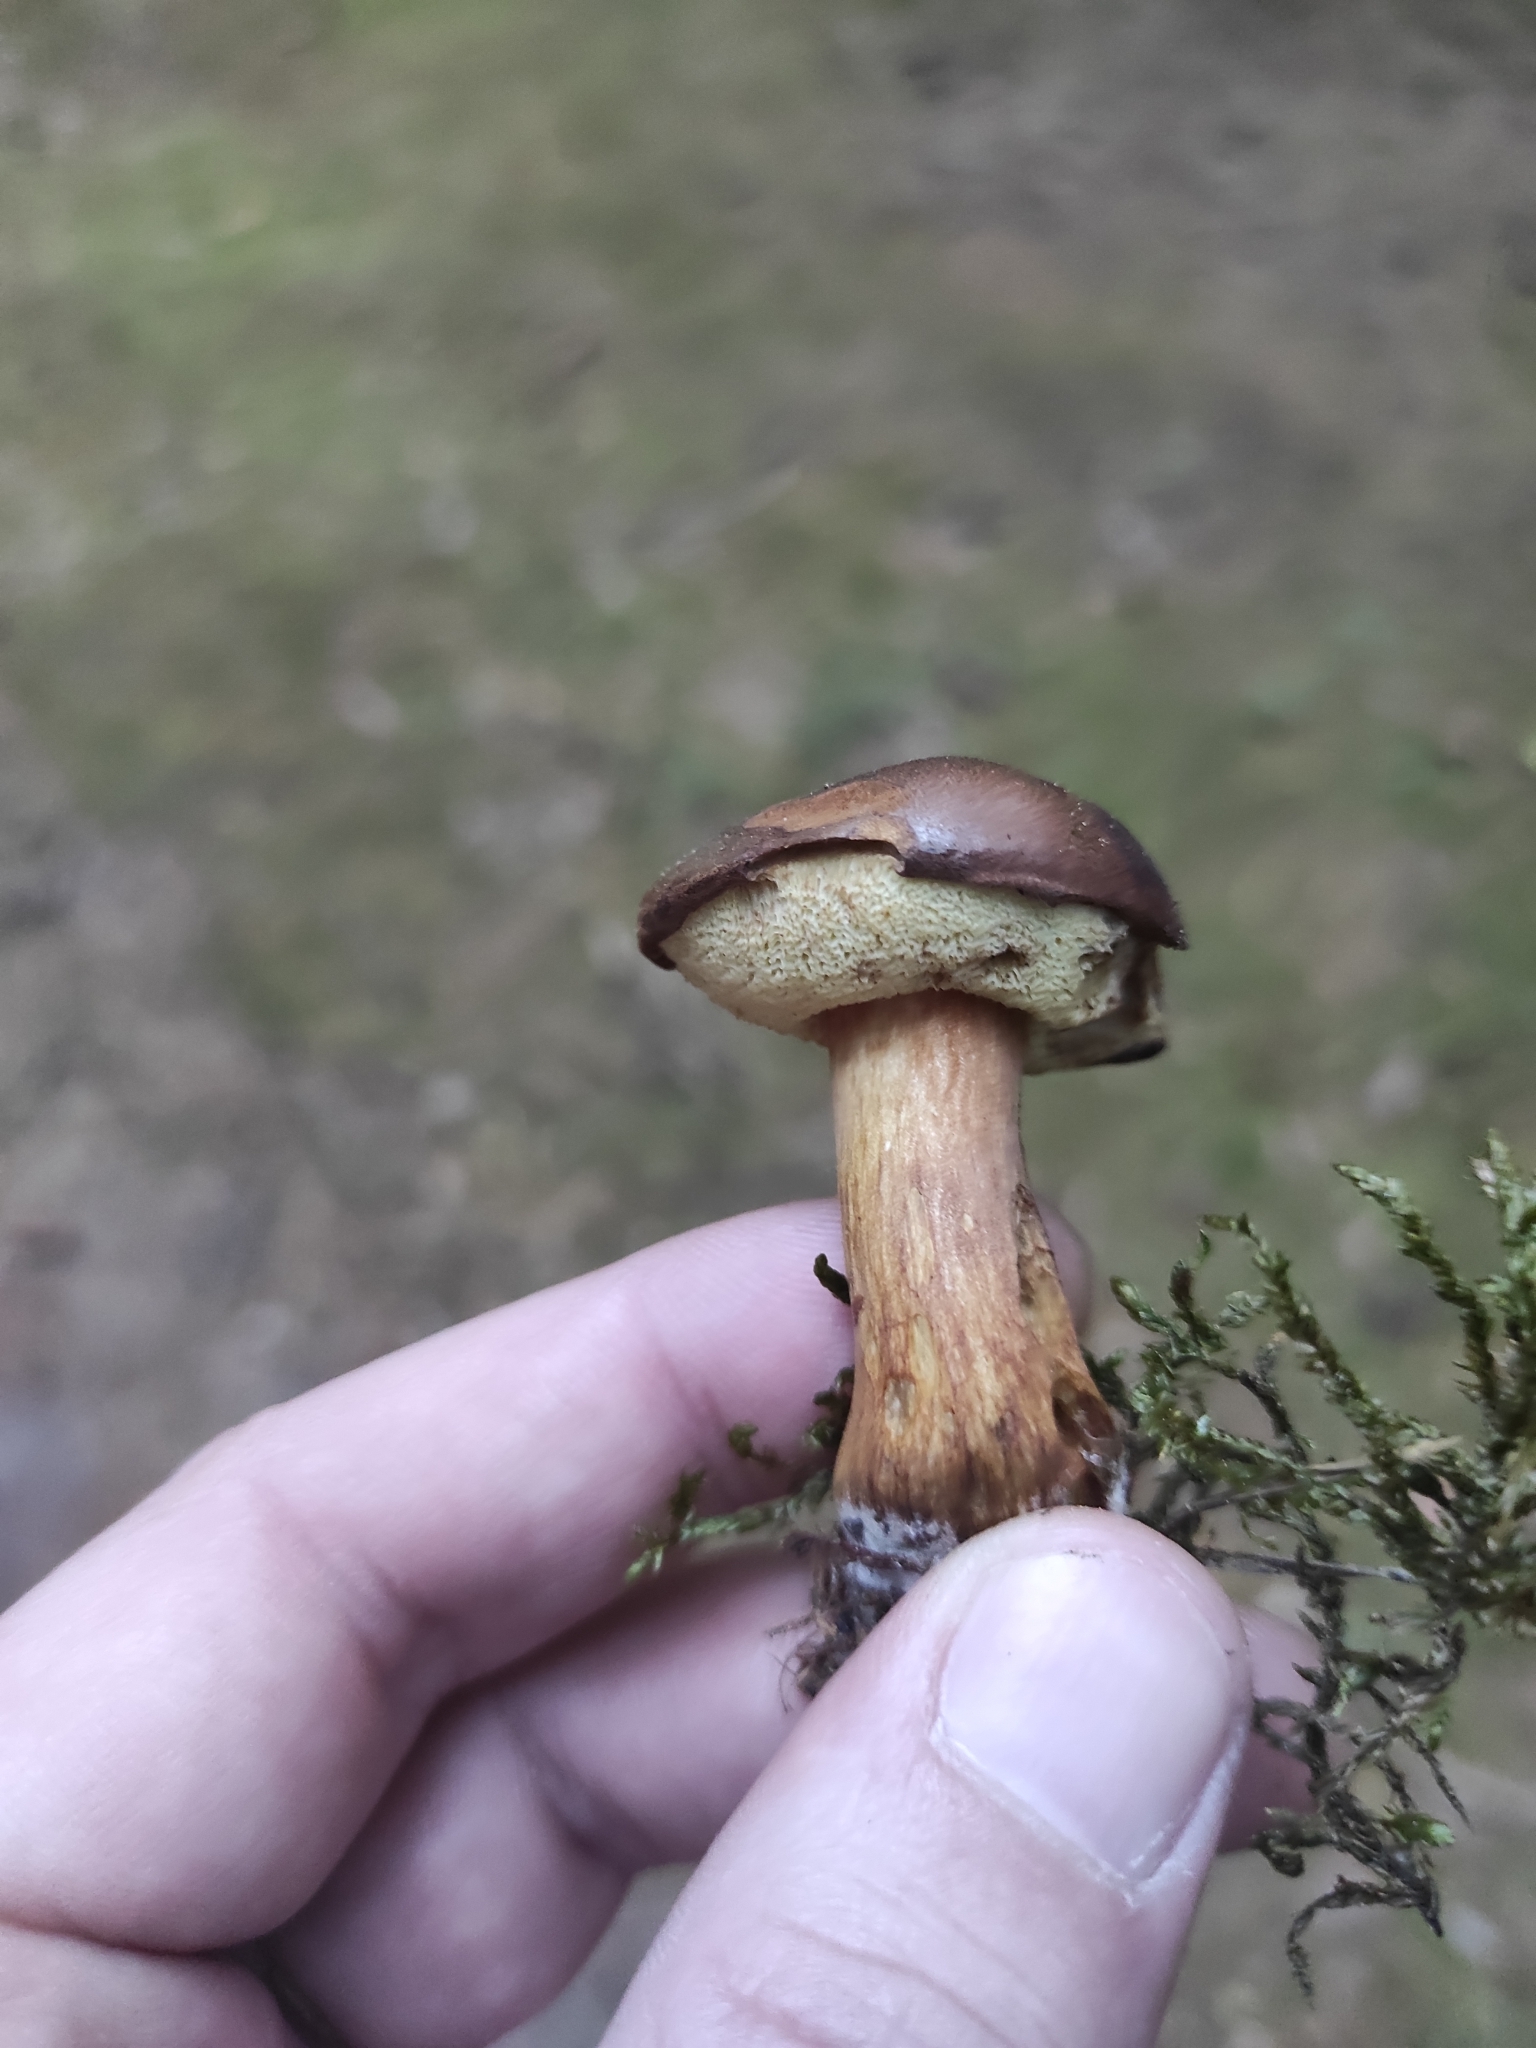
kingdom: Fungi
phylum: Basidiomycota
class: Agaricomycetes
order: Boletales
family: Boletaceae
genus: Imleria
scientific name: Imleria badia
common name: Bay bolete
